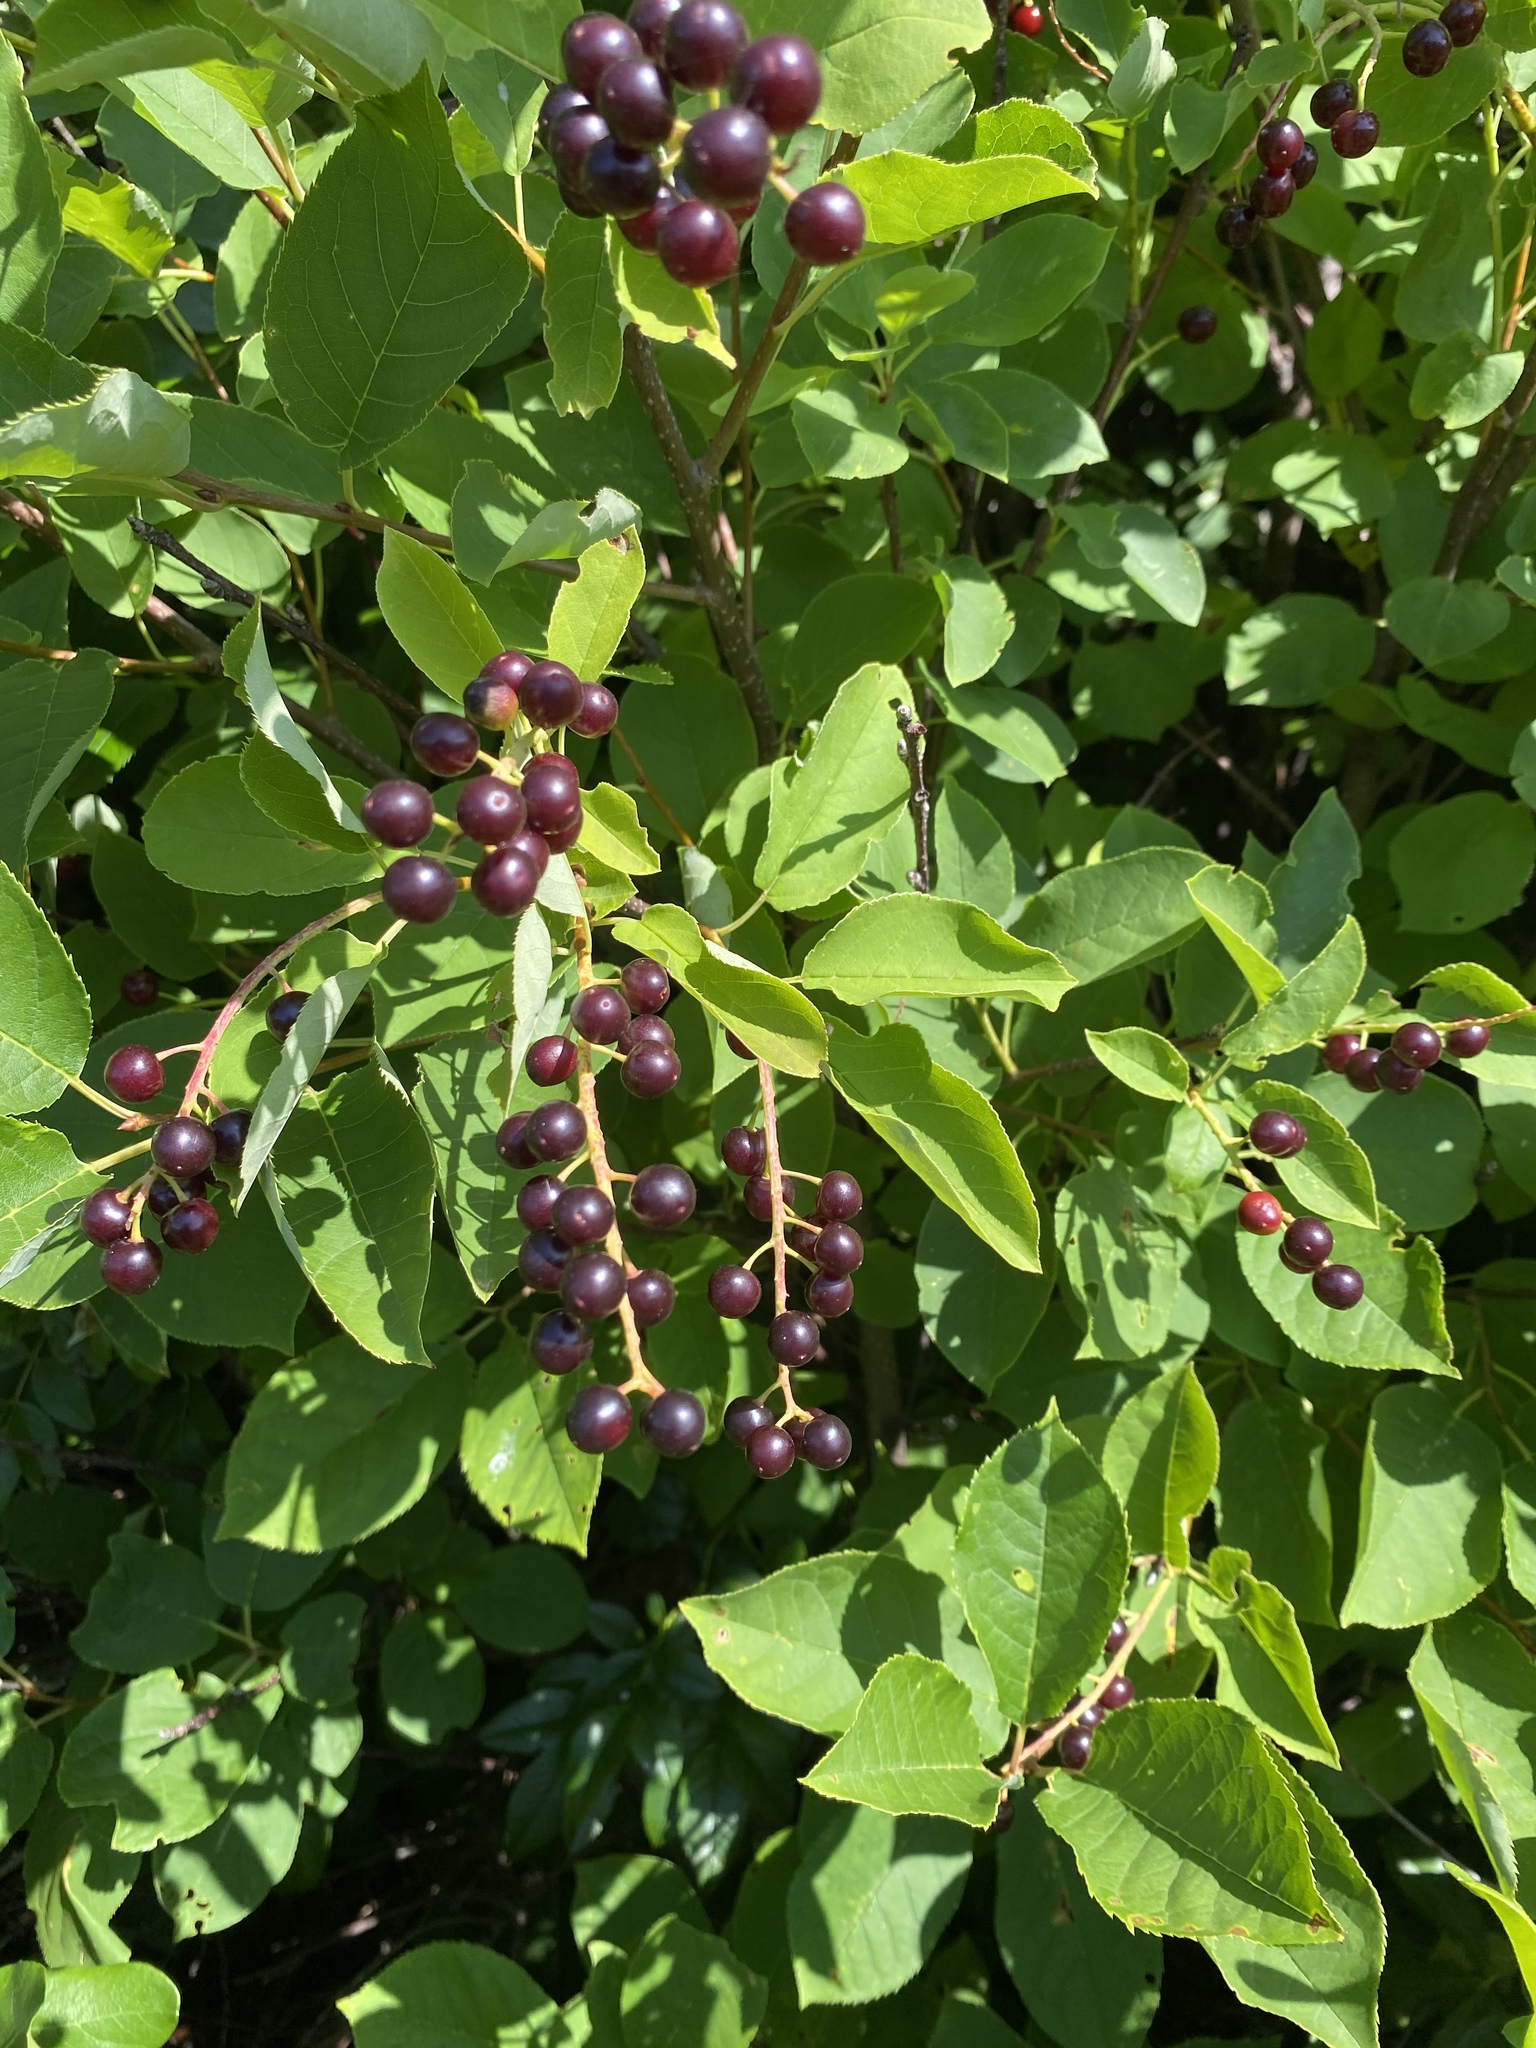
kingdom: Plantae
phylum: Tracheophyta
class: Magnoliopsida
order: Rosales
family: Rosaceae
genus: Prunus
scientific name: Prunus virginiana
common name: Chokecherry
